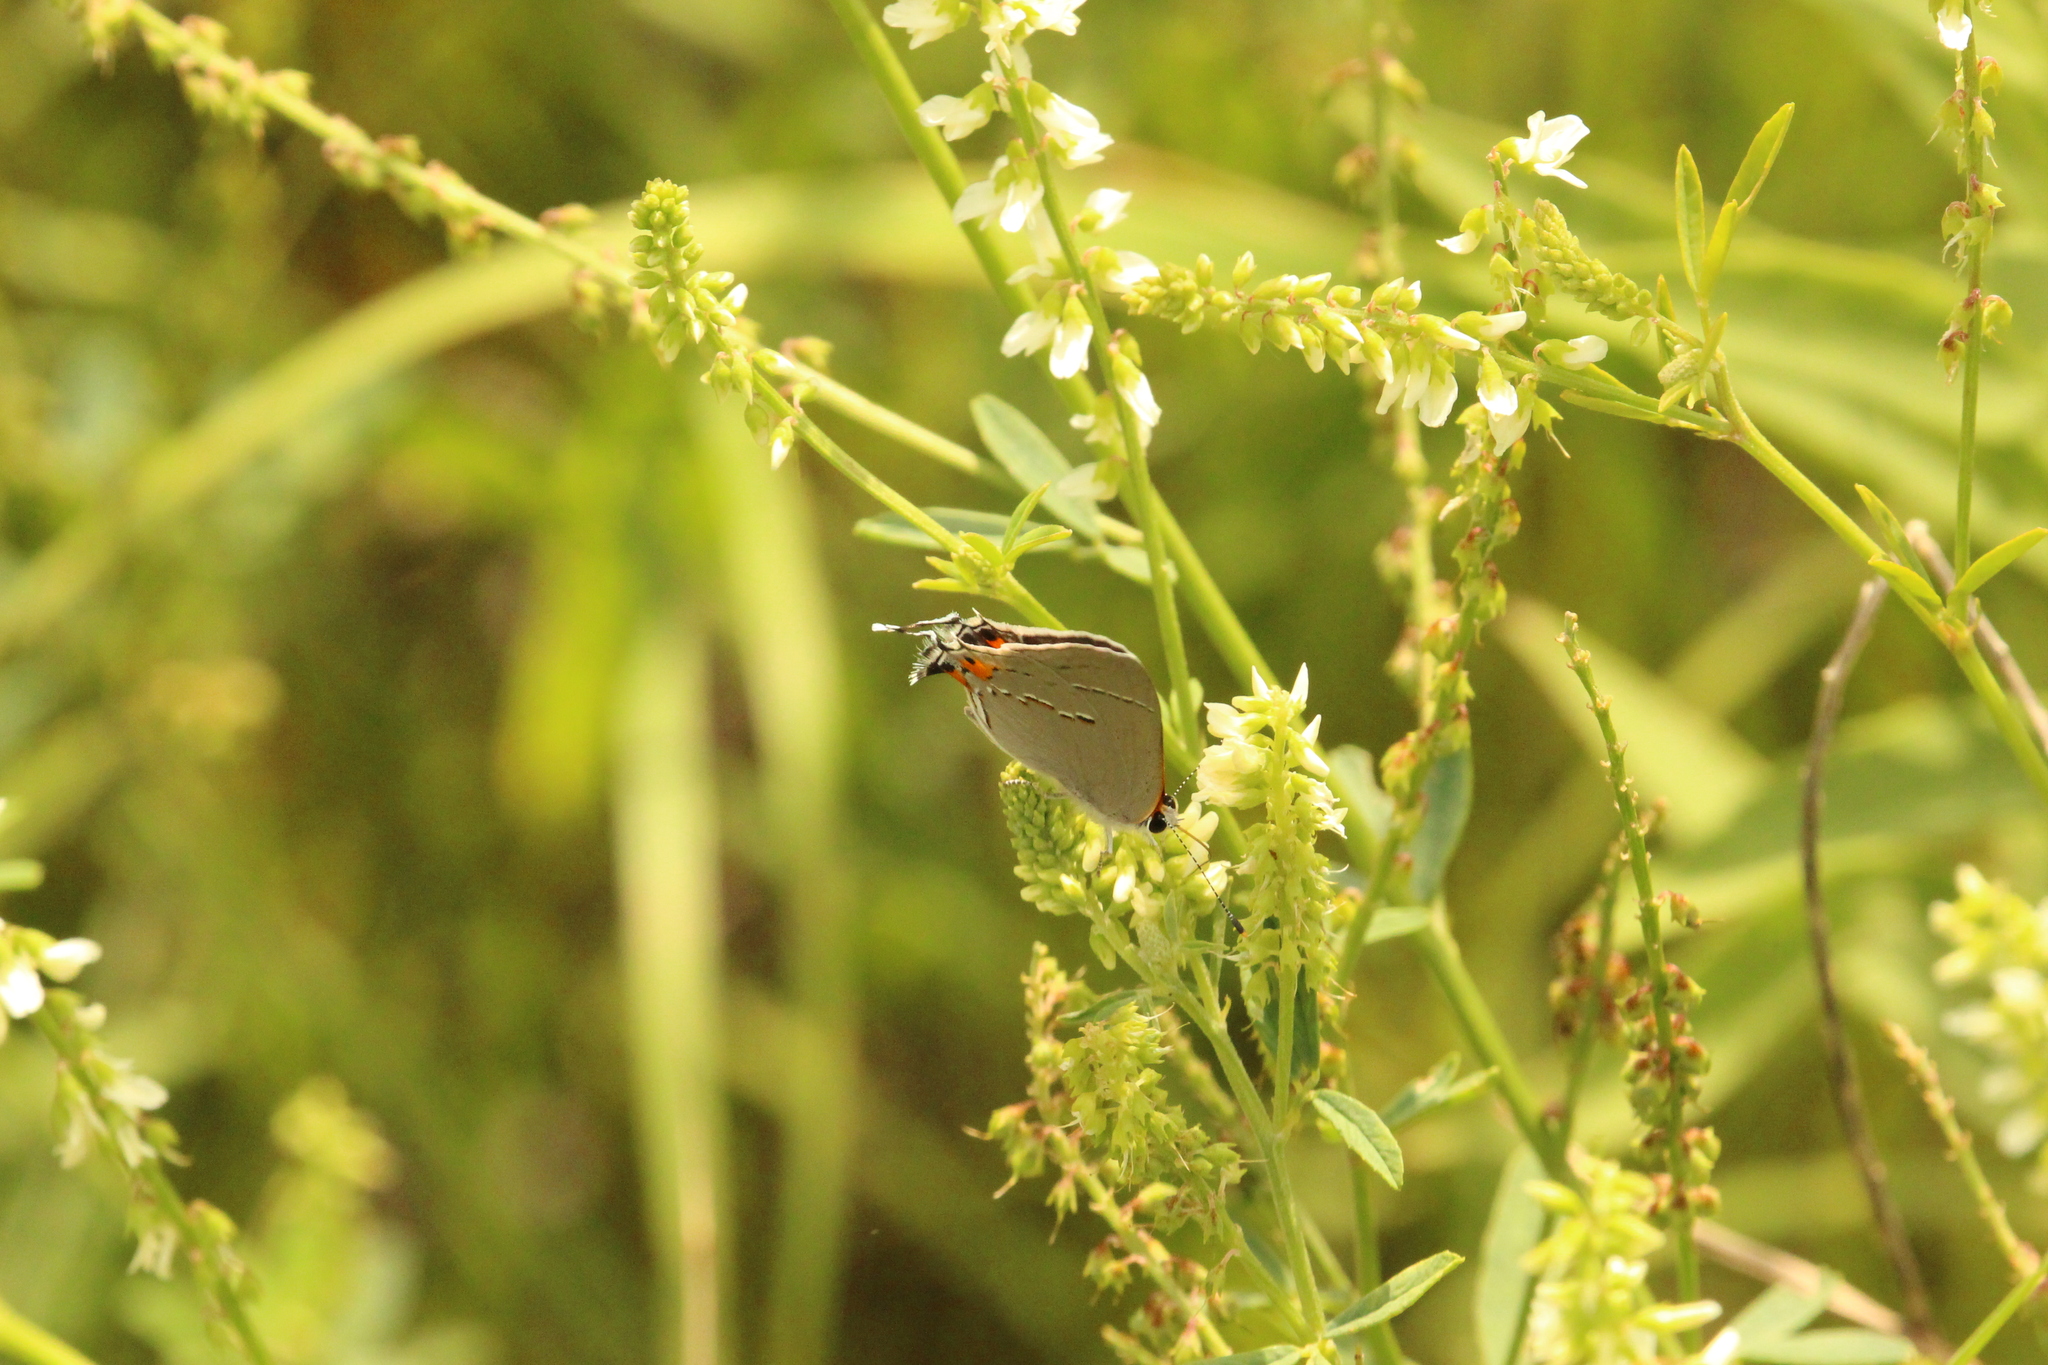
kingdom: Animalia
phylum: Arthropoda
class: Insecta
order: Lepidoptera
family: Lycaenidae
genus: Strymon
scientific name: Strymon melinus
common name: Gray hairstreak
